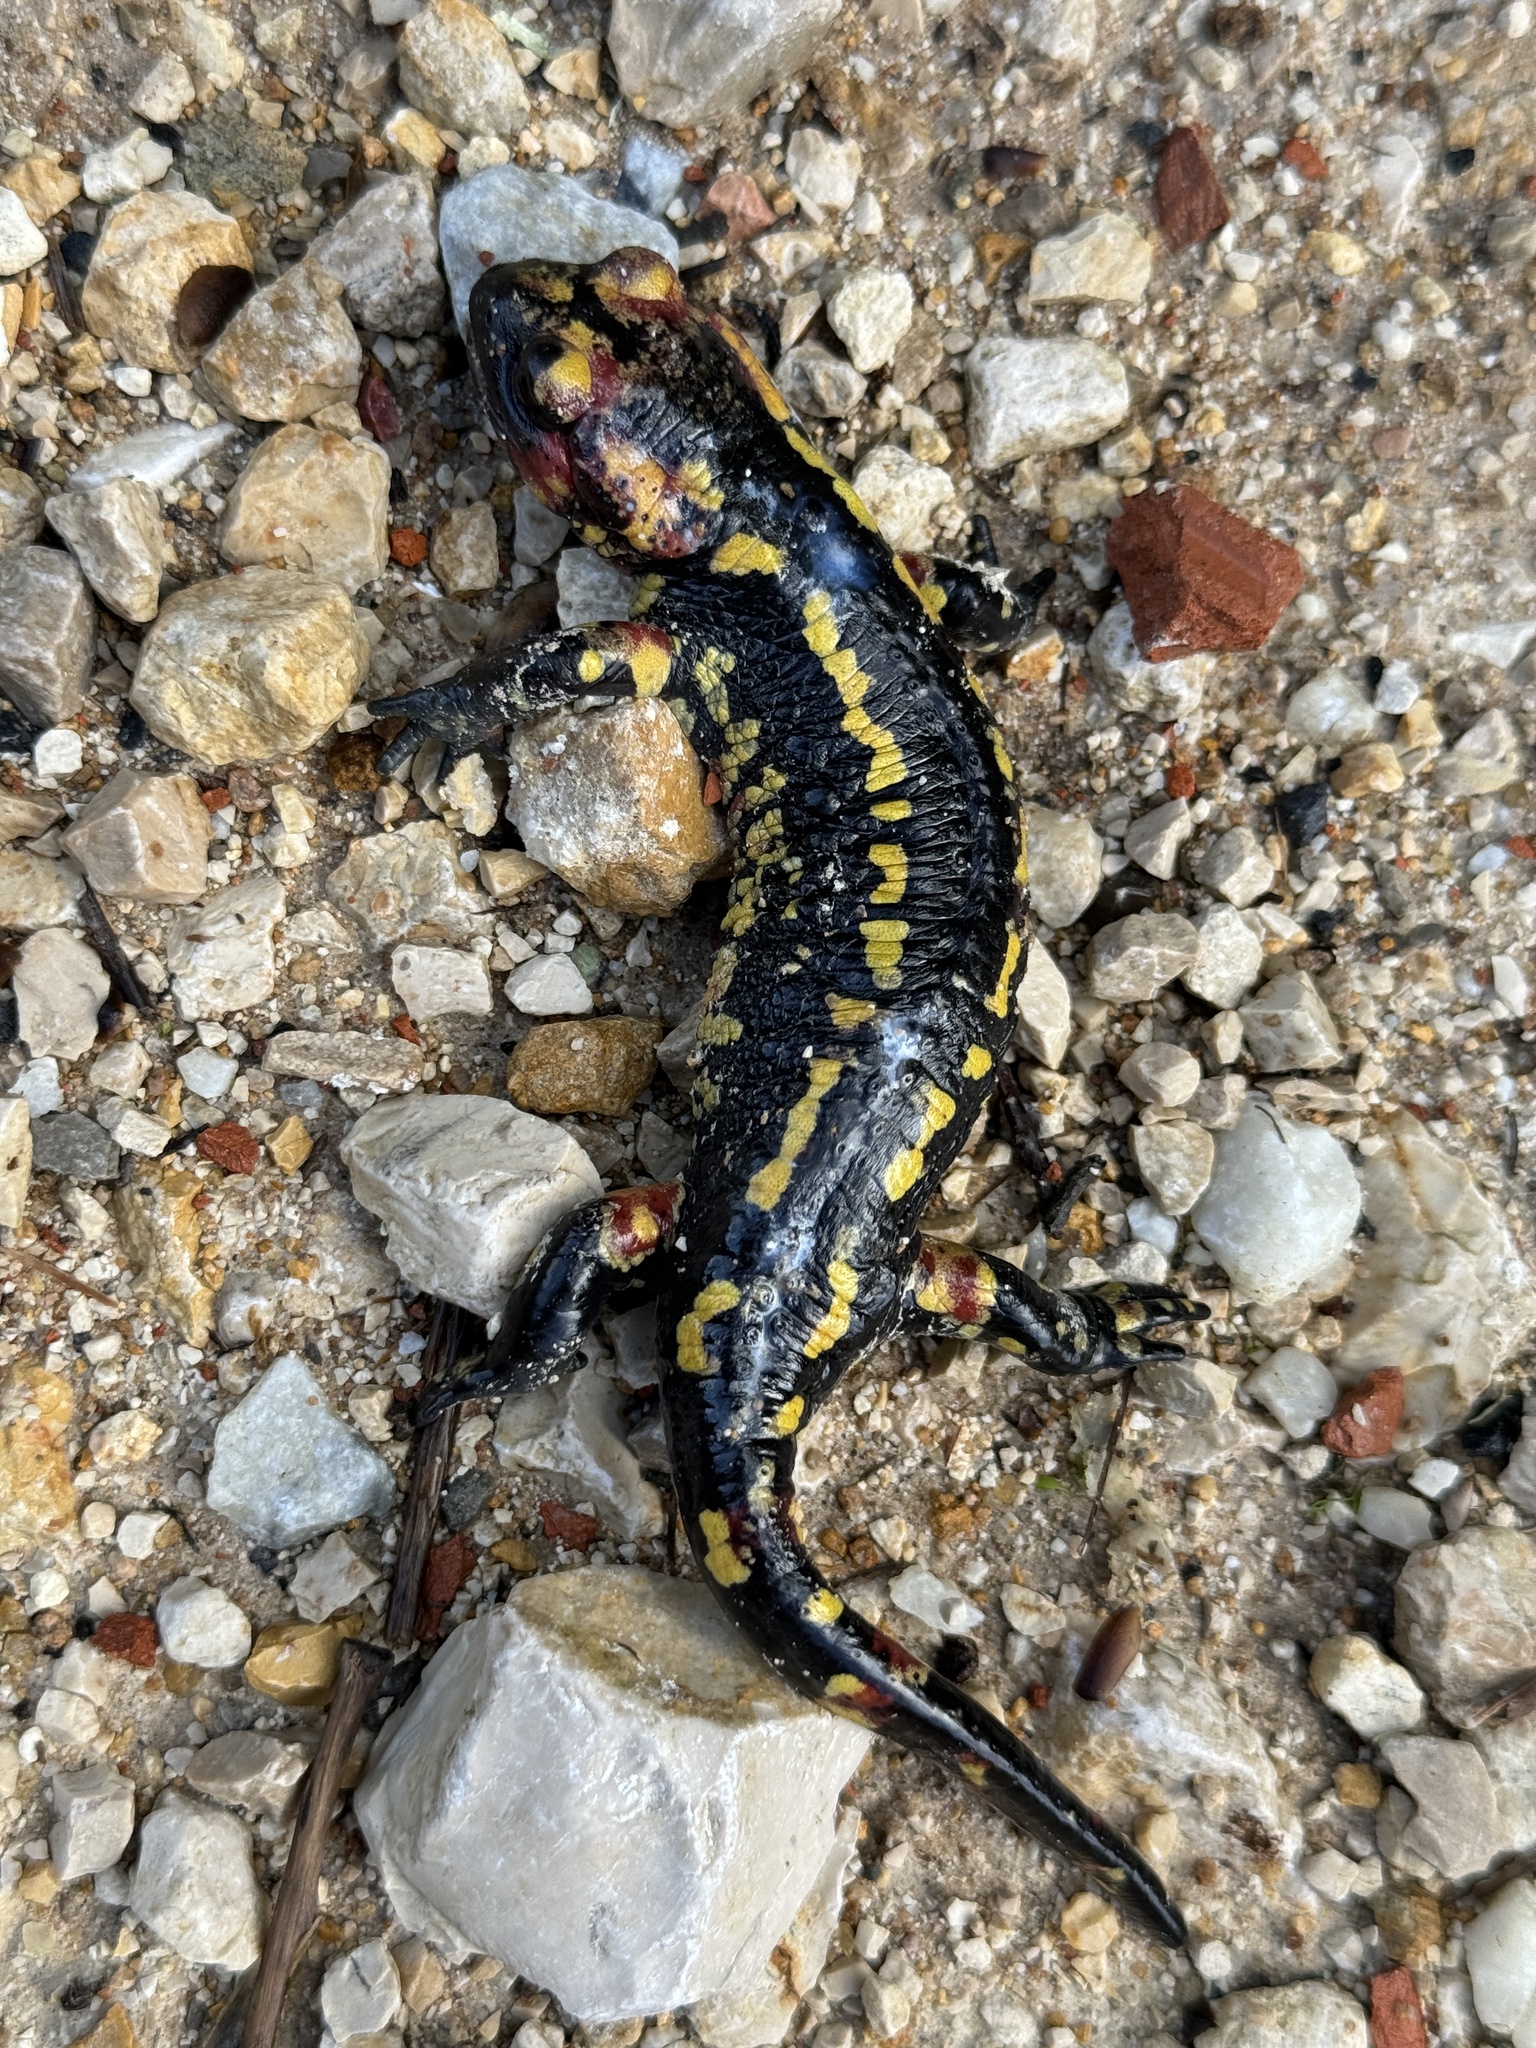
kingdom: Animalia
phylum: Chordata
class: Amphibia
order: Caudata
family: Salamandridae
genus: Salamandra
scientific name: Salamandra salamandra
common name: Fire salamander
